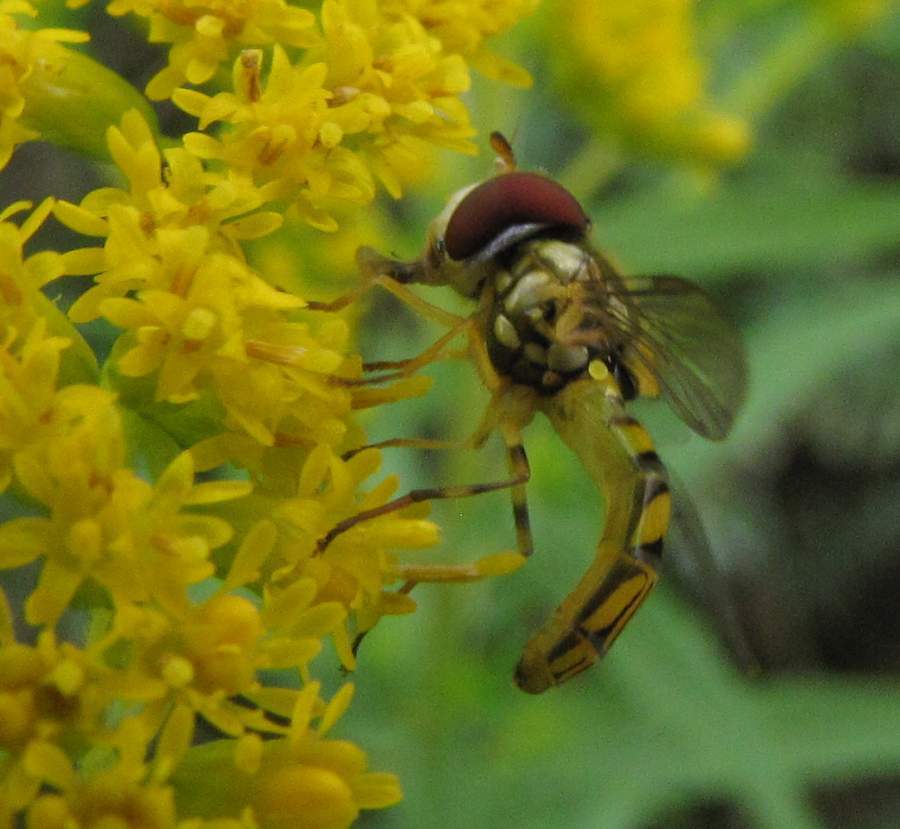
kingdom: Animalia
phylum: Arthropoda
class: Insecta
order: Diptera
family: Syrphidae
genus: Allograpta
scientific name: Allograpta obliqua
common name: Common oblique syrphid
